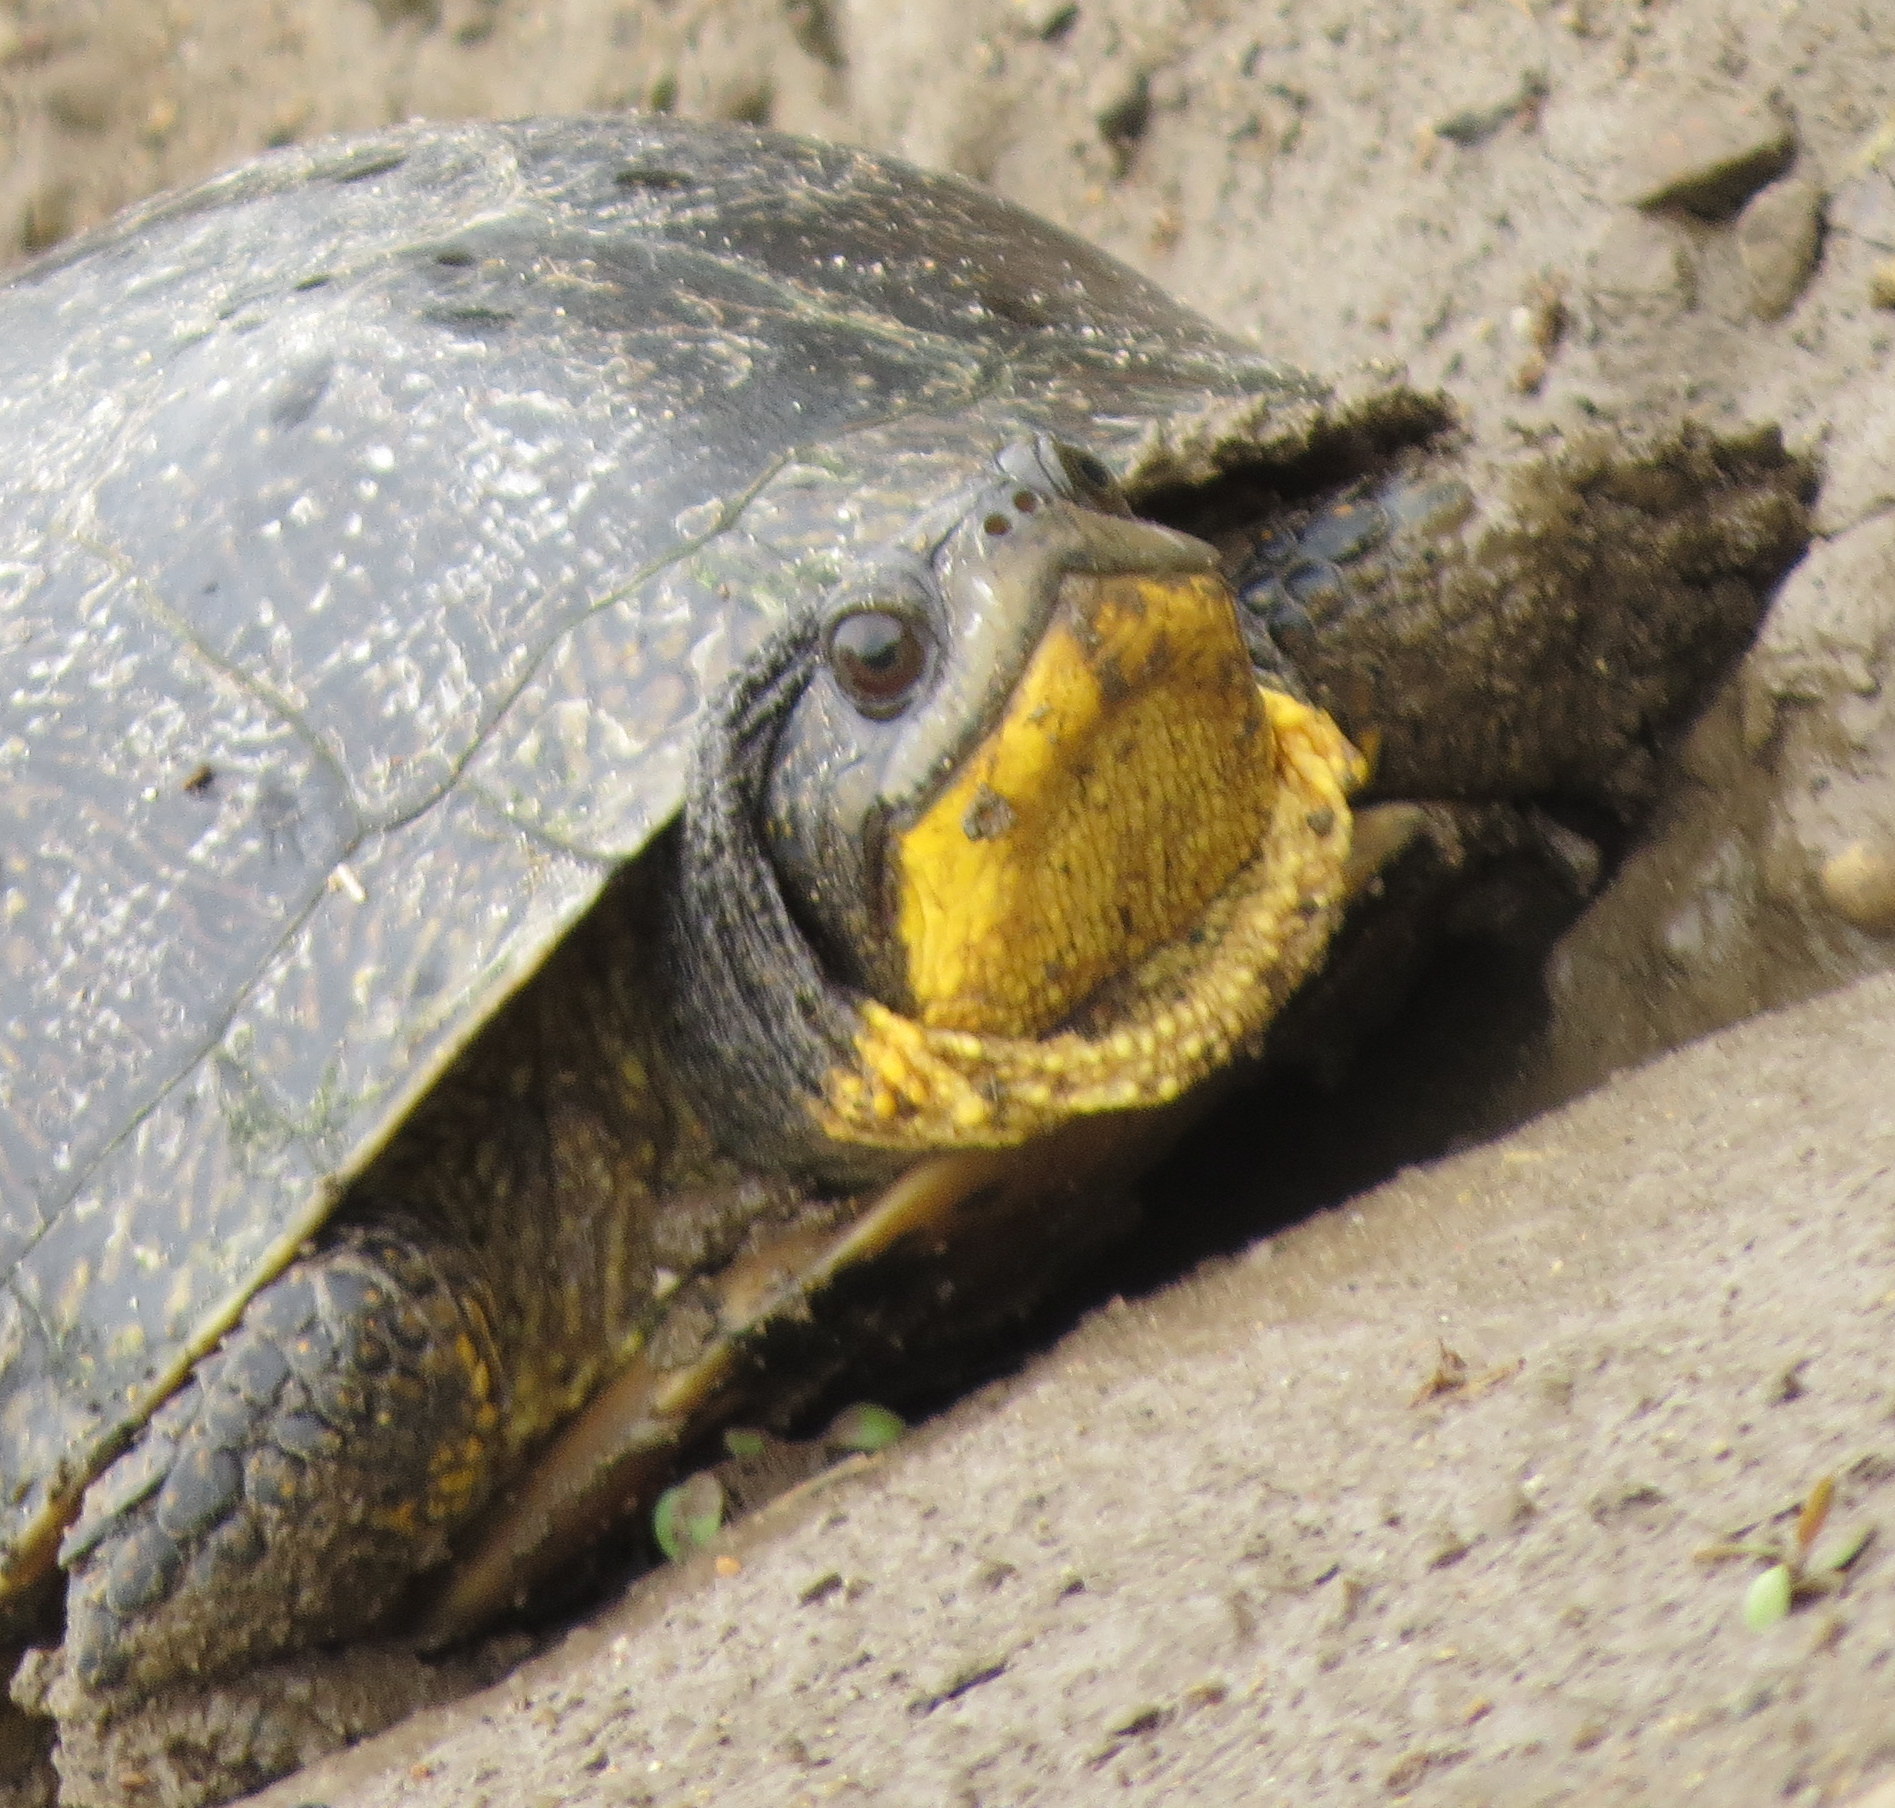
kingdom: Animalia
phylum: Chordata
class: Testudines
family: Emydidae
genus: Emys
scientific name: Emys blandingii
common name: Blanding's turtle
